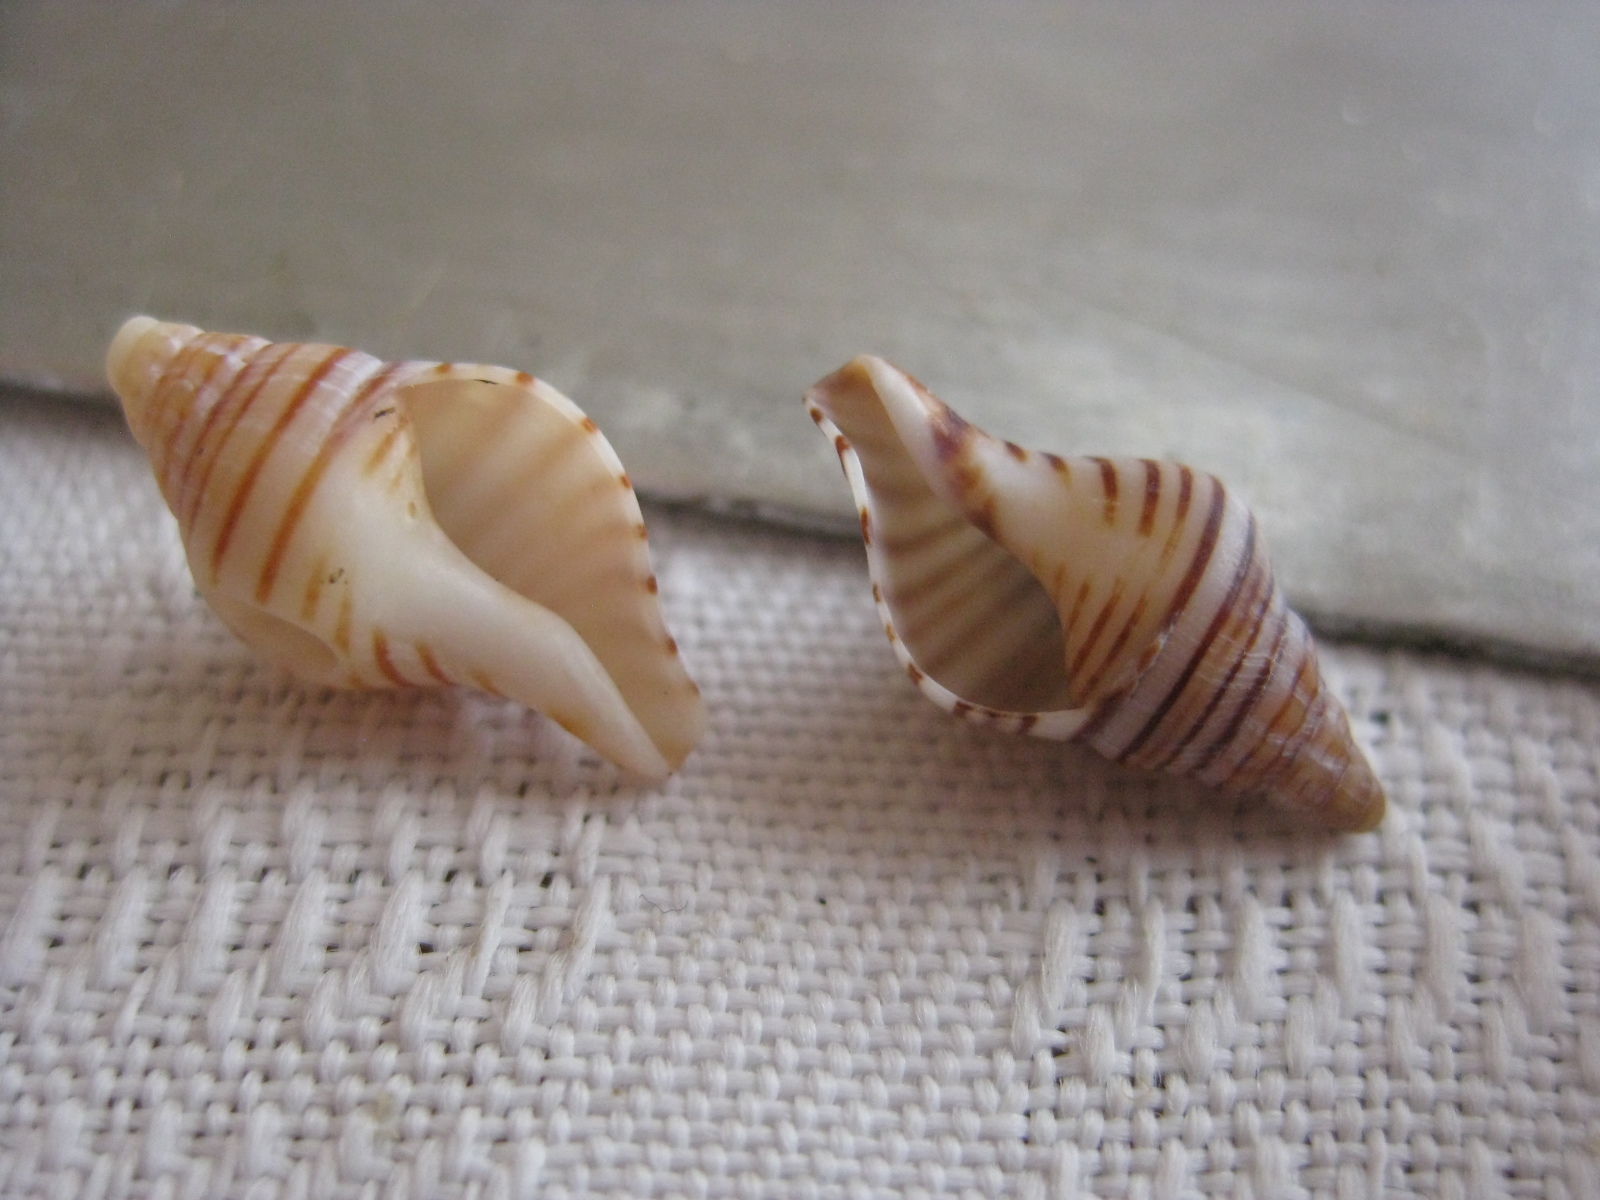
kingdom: Animalia
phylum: Mollusca
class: Gastropoda
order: Neogastropoda
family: Tudiclidae
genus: Buccinulum
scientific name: Buccinulum linea
